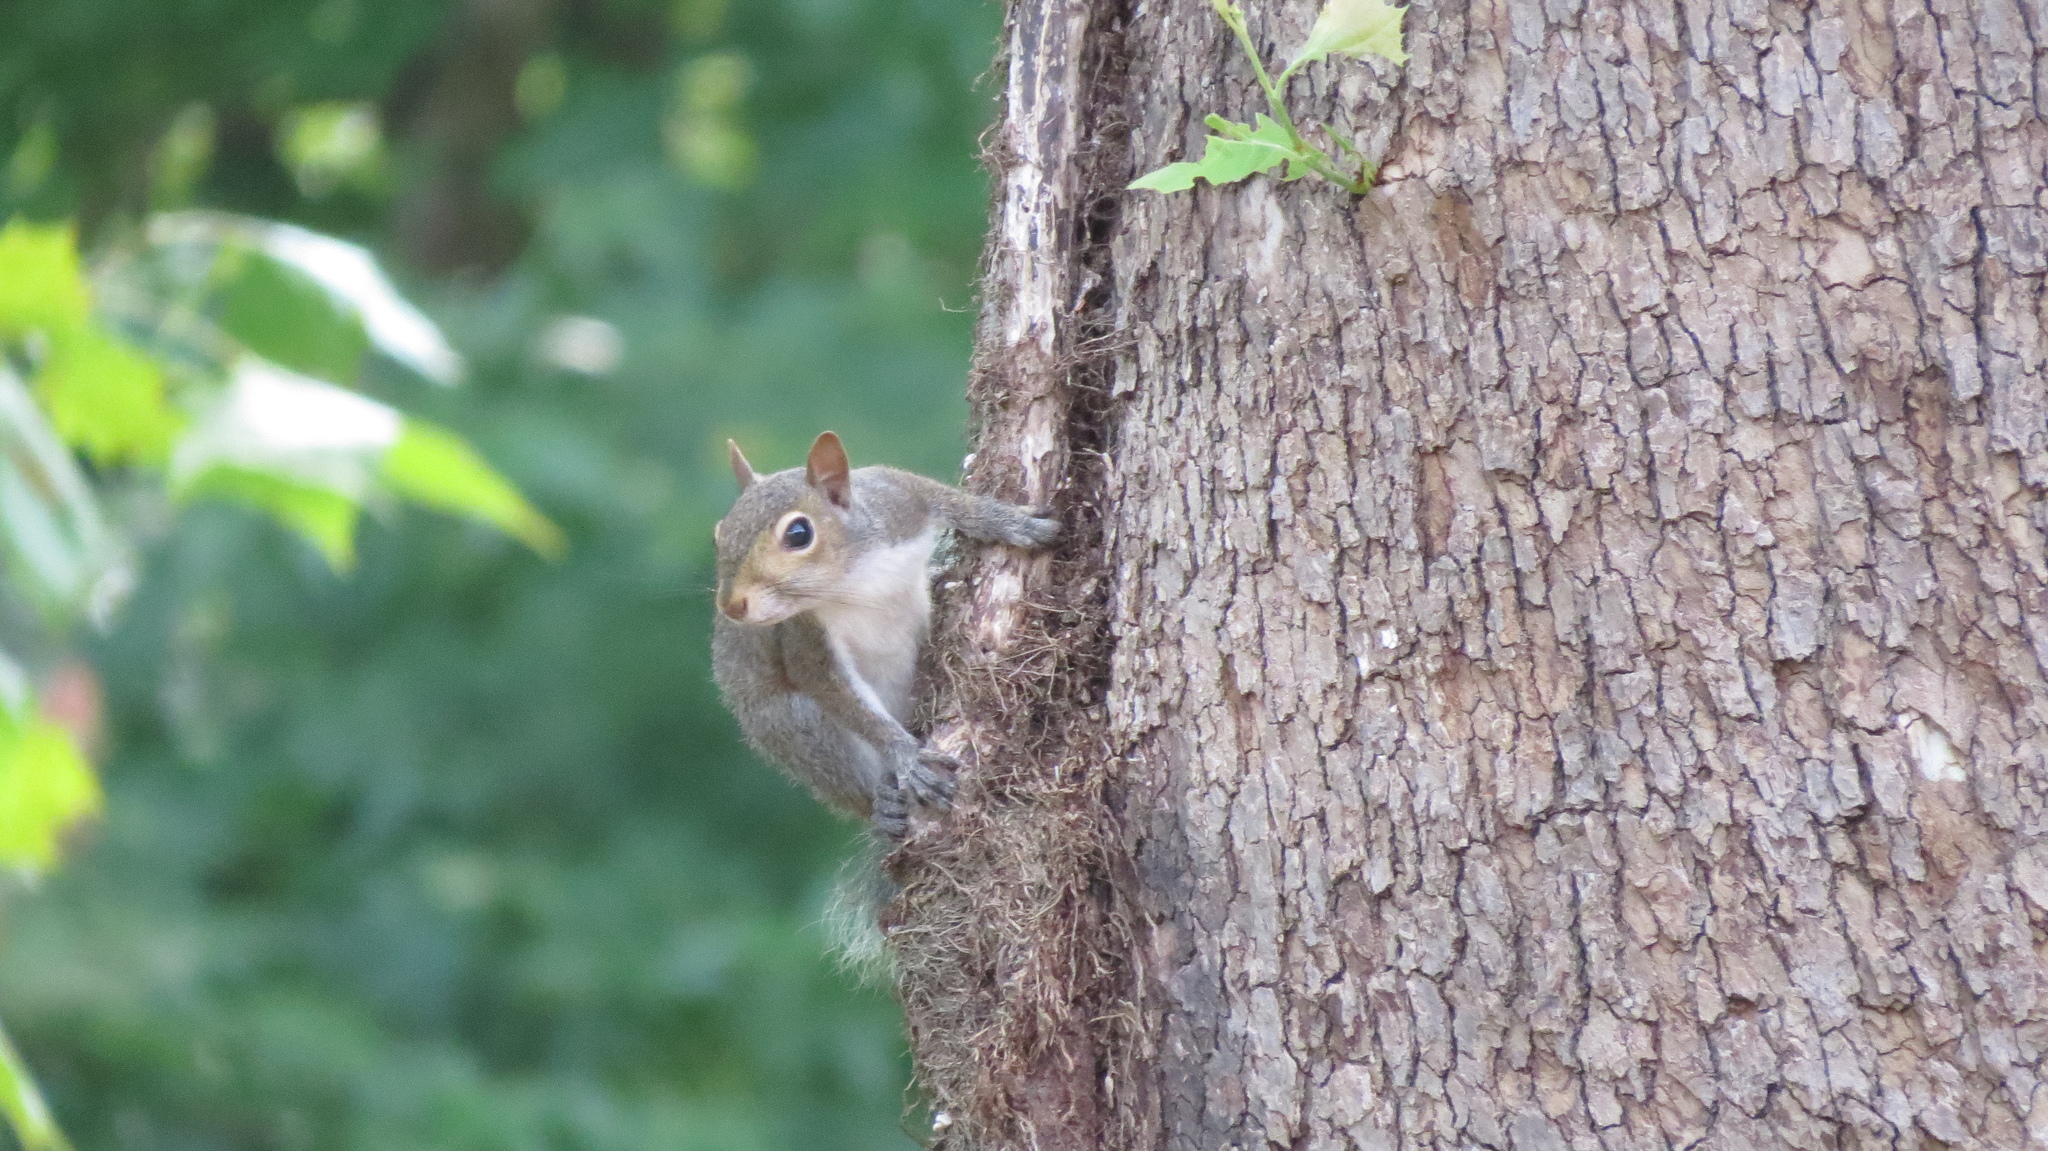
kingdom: Animalia
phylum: Chordata
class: Mammalia
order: Rodentia
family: Sciuridae
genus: Sciurus
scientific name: Sciurus carolinensis
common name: Eastern gray squirrel
